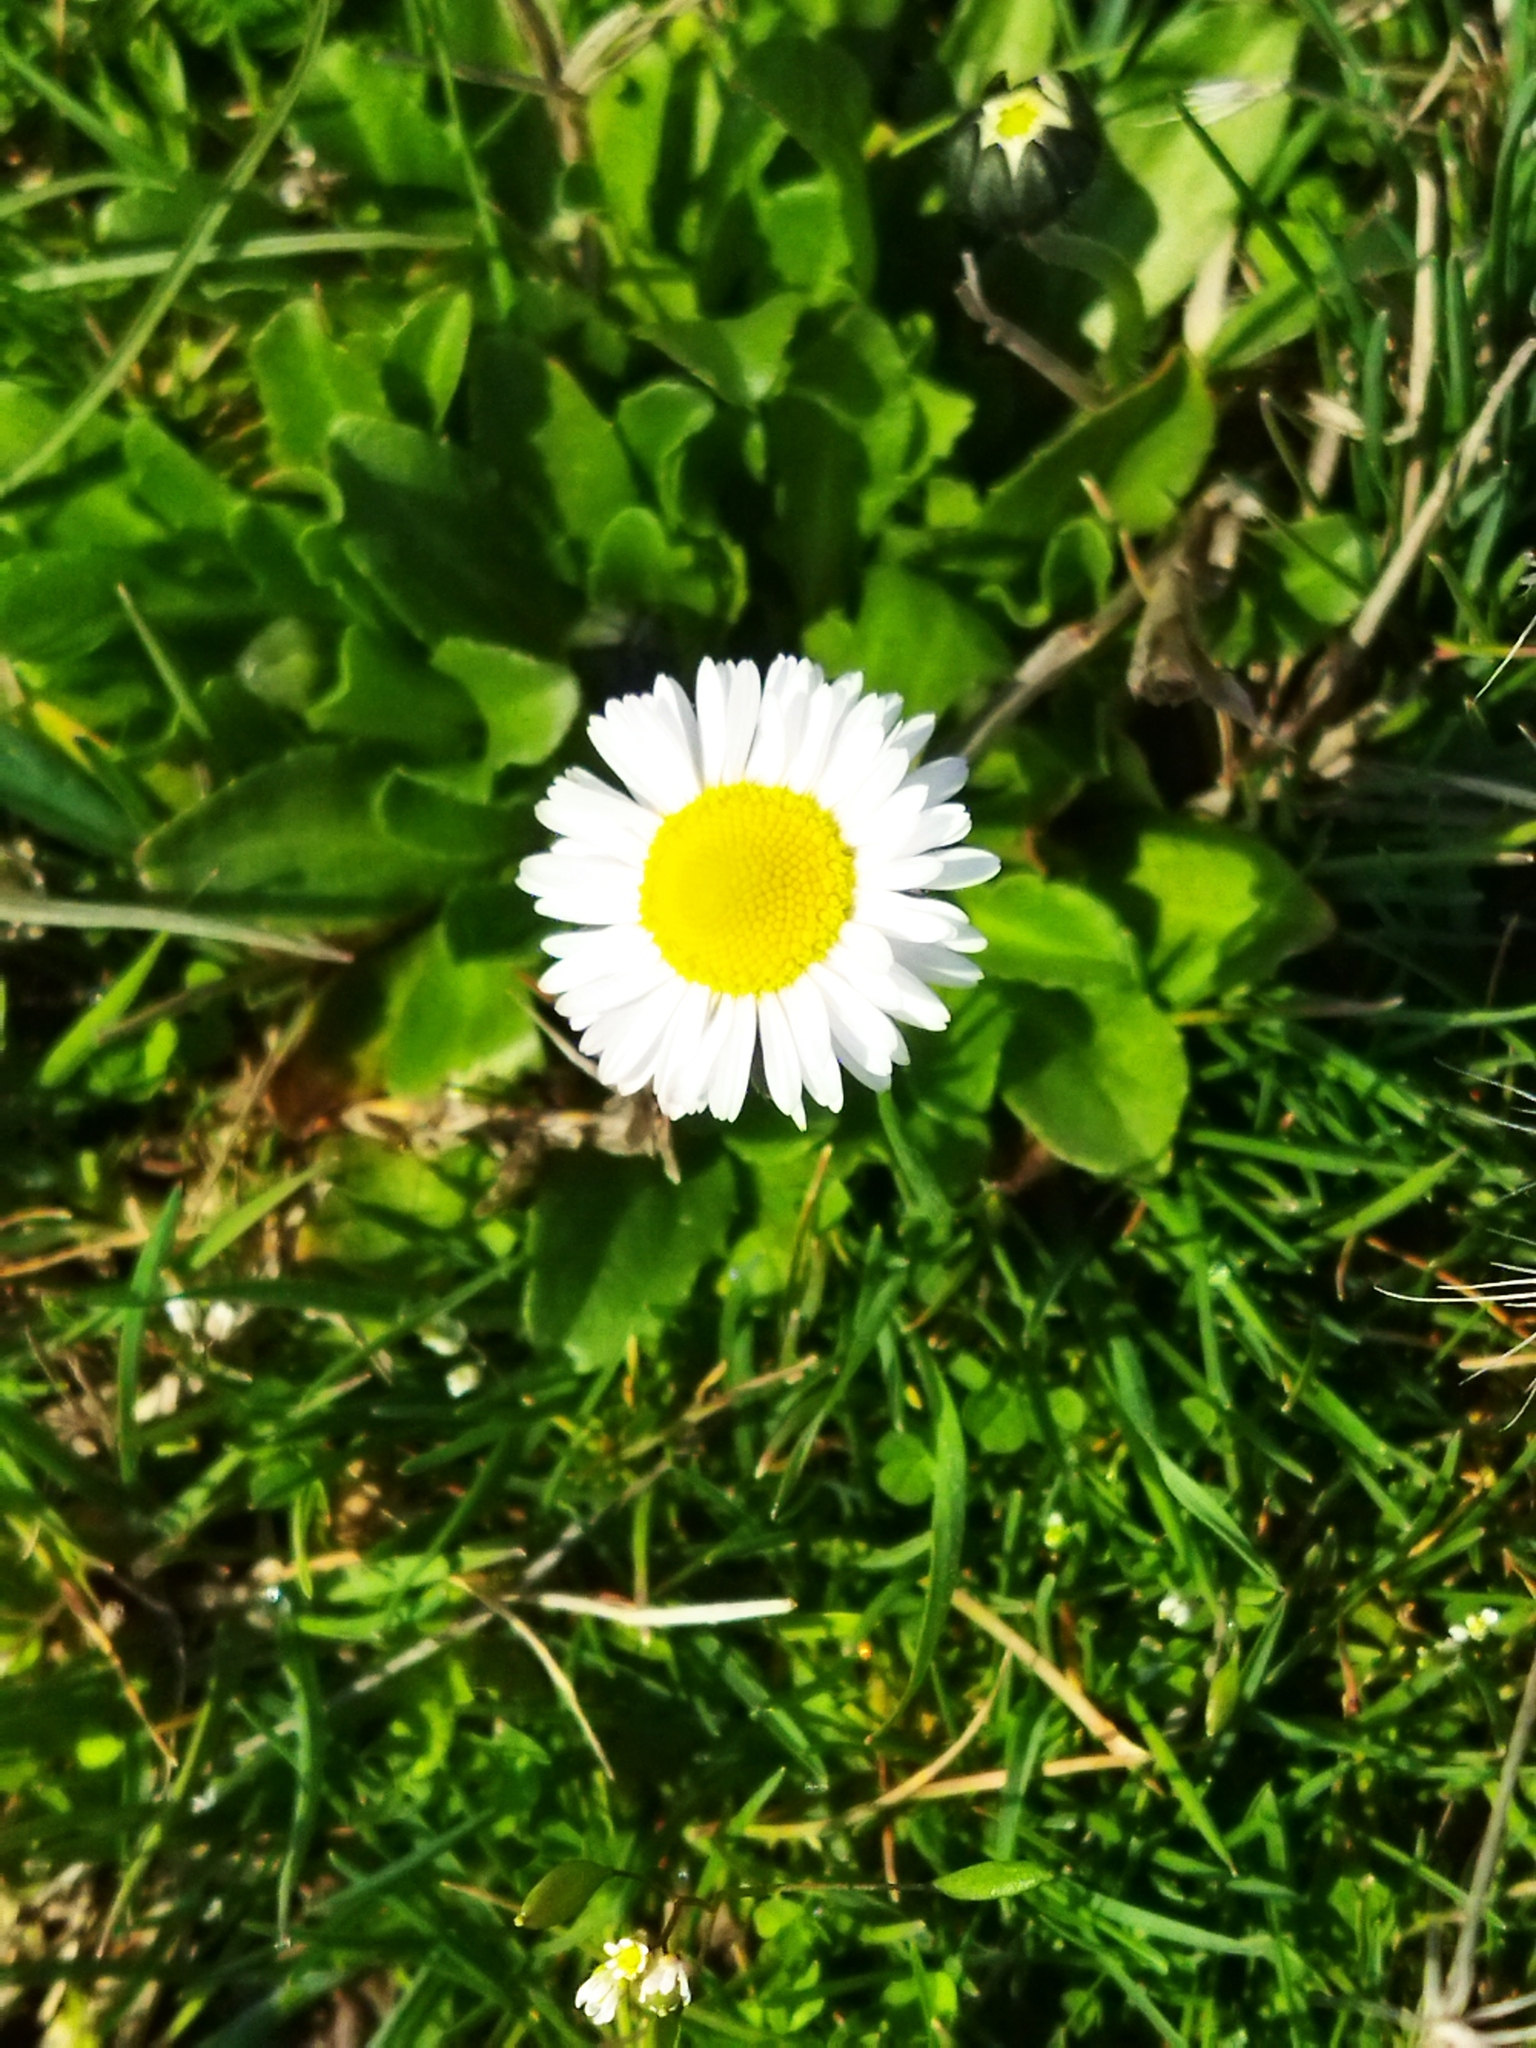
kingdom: Plantae
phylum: Tracheophyta
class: Magnoliopsida
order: Asterales
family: Asteraceae
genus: Bellis
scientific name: Bellis perennis
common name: Lawndaisy
